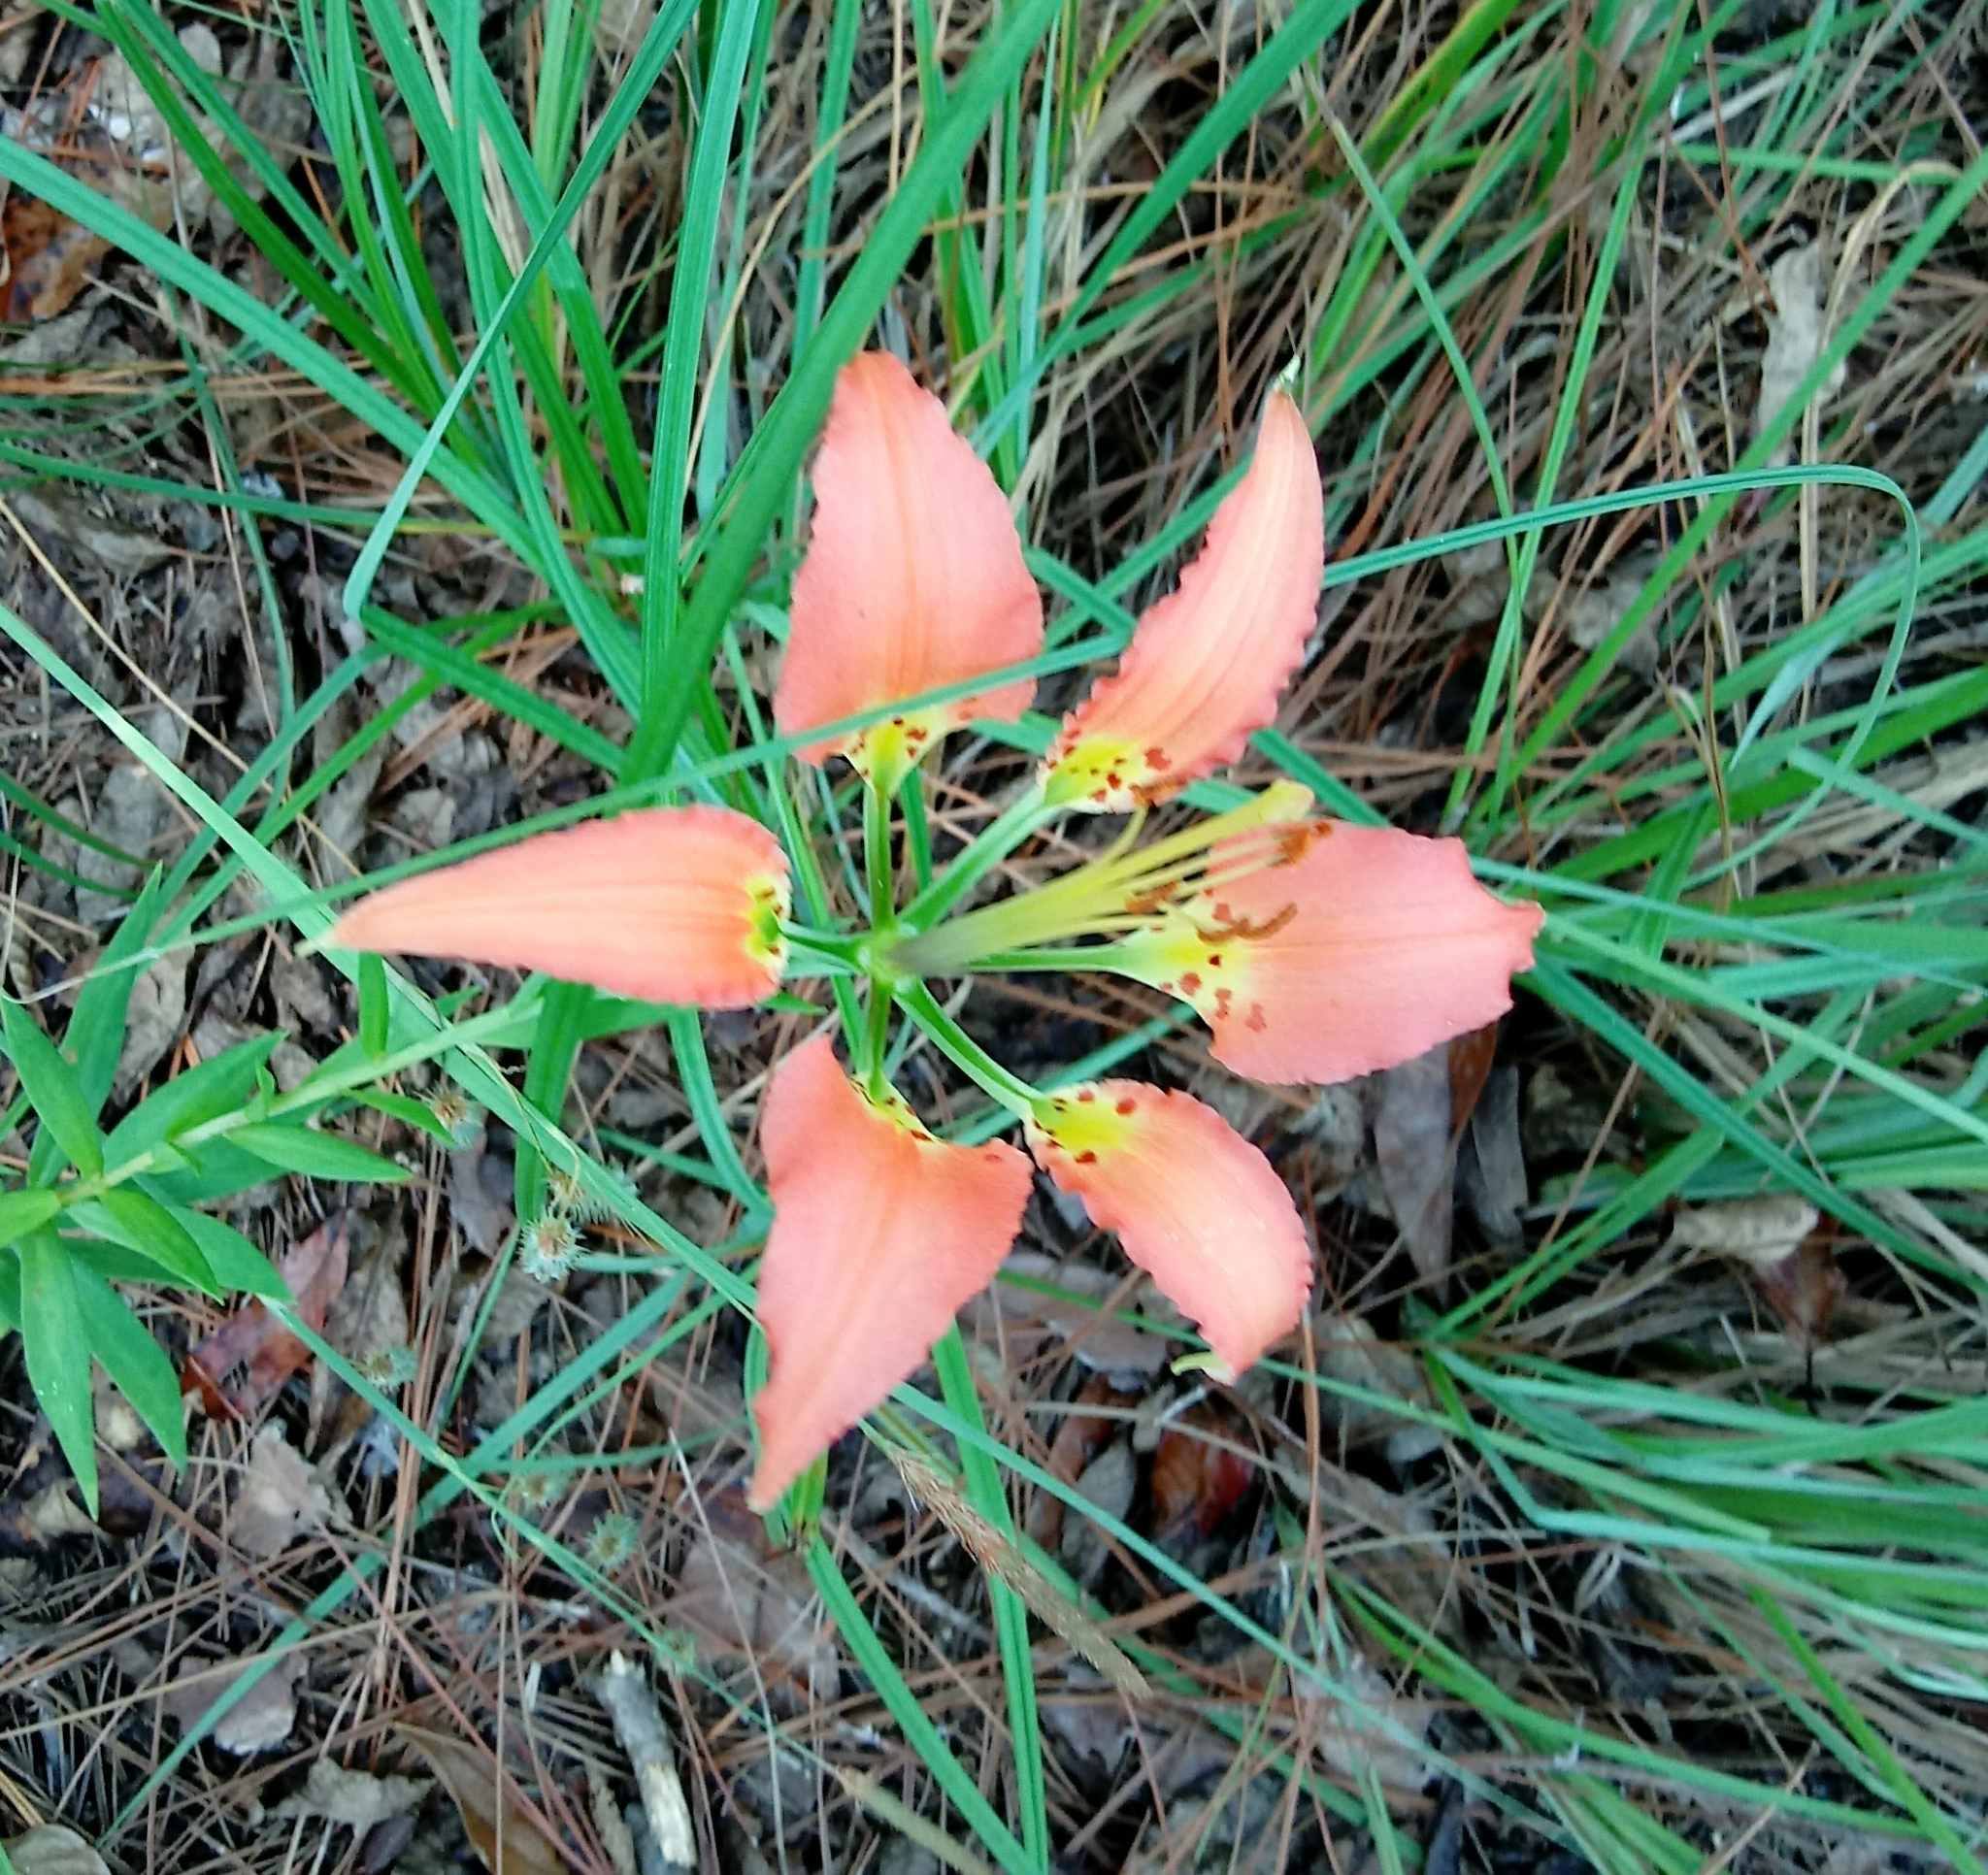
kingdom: Plantae
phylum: Tracheophyta
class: Liliopsida
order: Liliales
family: Liliaceae
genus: Lilium
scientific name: Lilium catesbaei
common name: Catesby's lily
